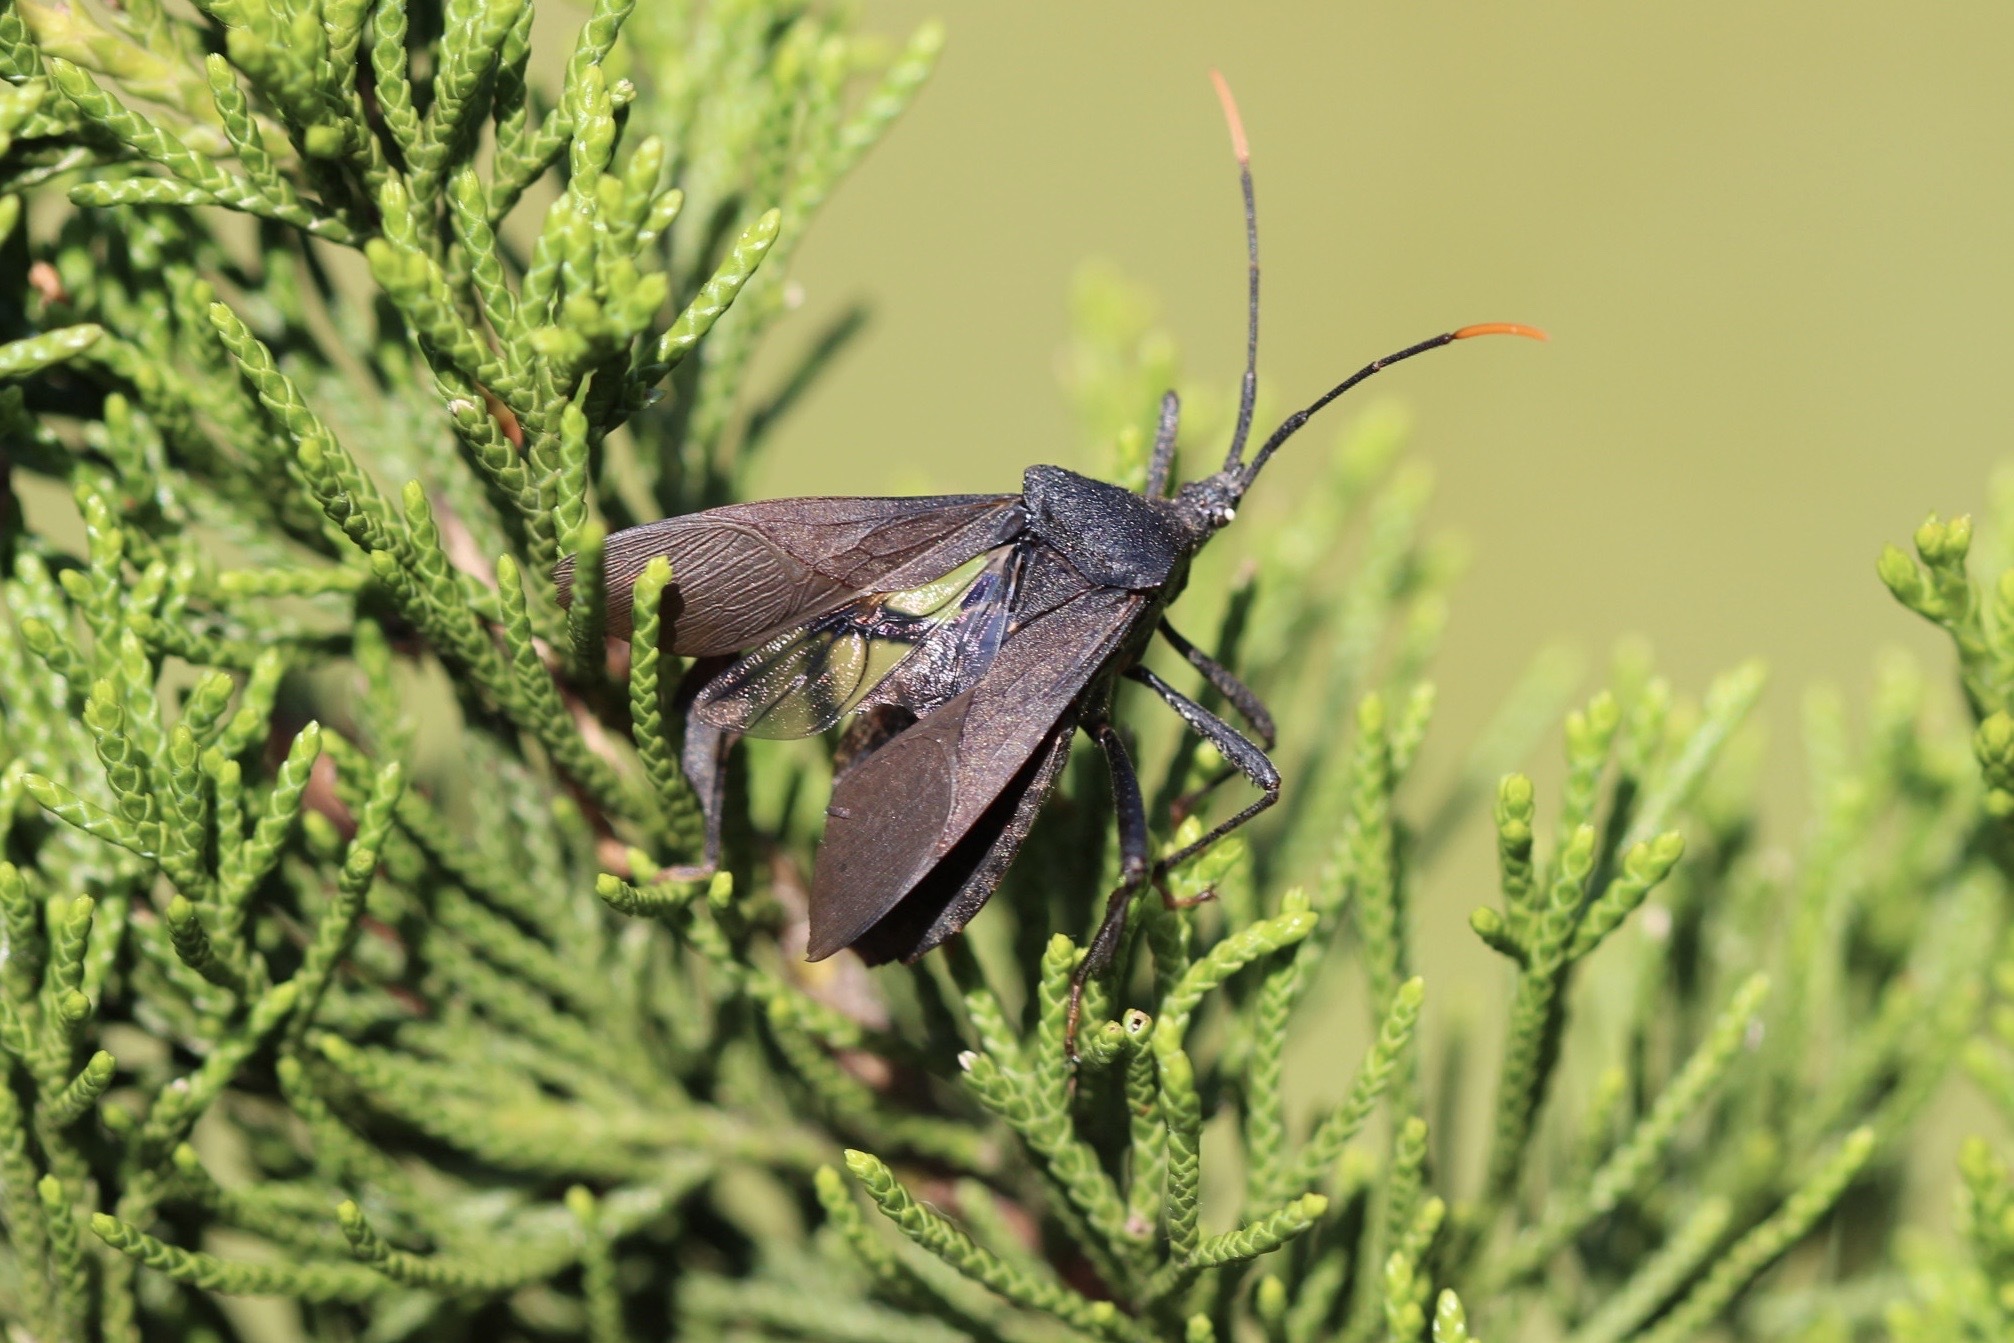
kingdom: Animalia
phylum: Arthropoda
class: Insecta
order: Hemiptera
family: Coreidae
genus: Acanthocephala
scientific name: Acanthocephala terminalis
